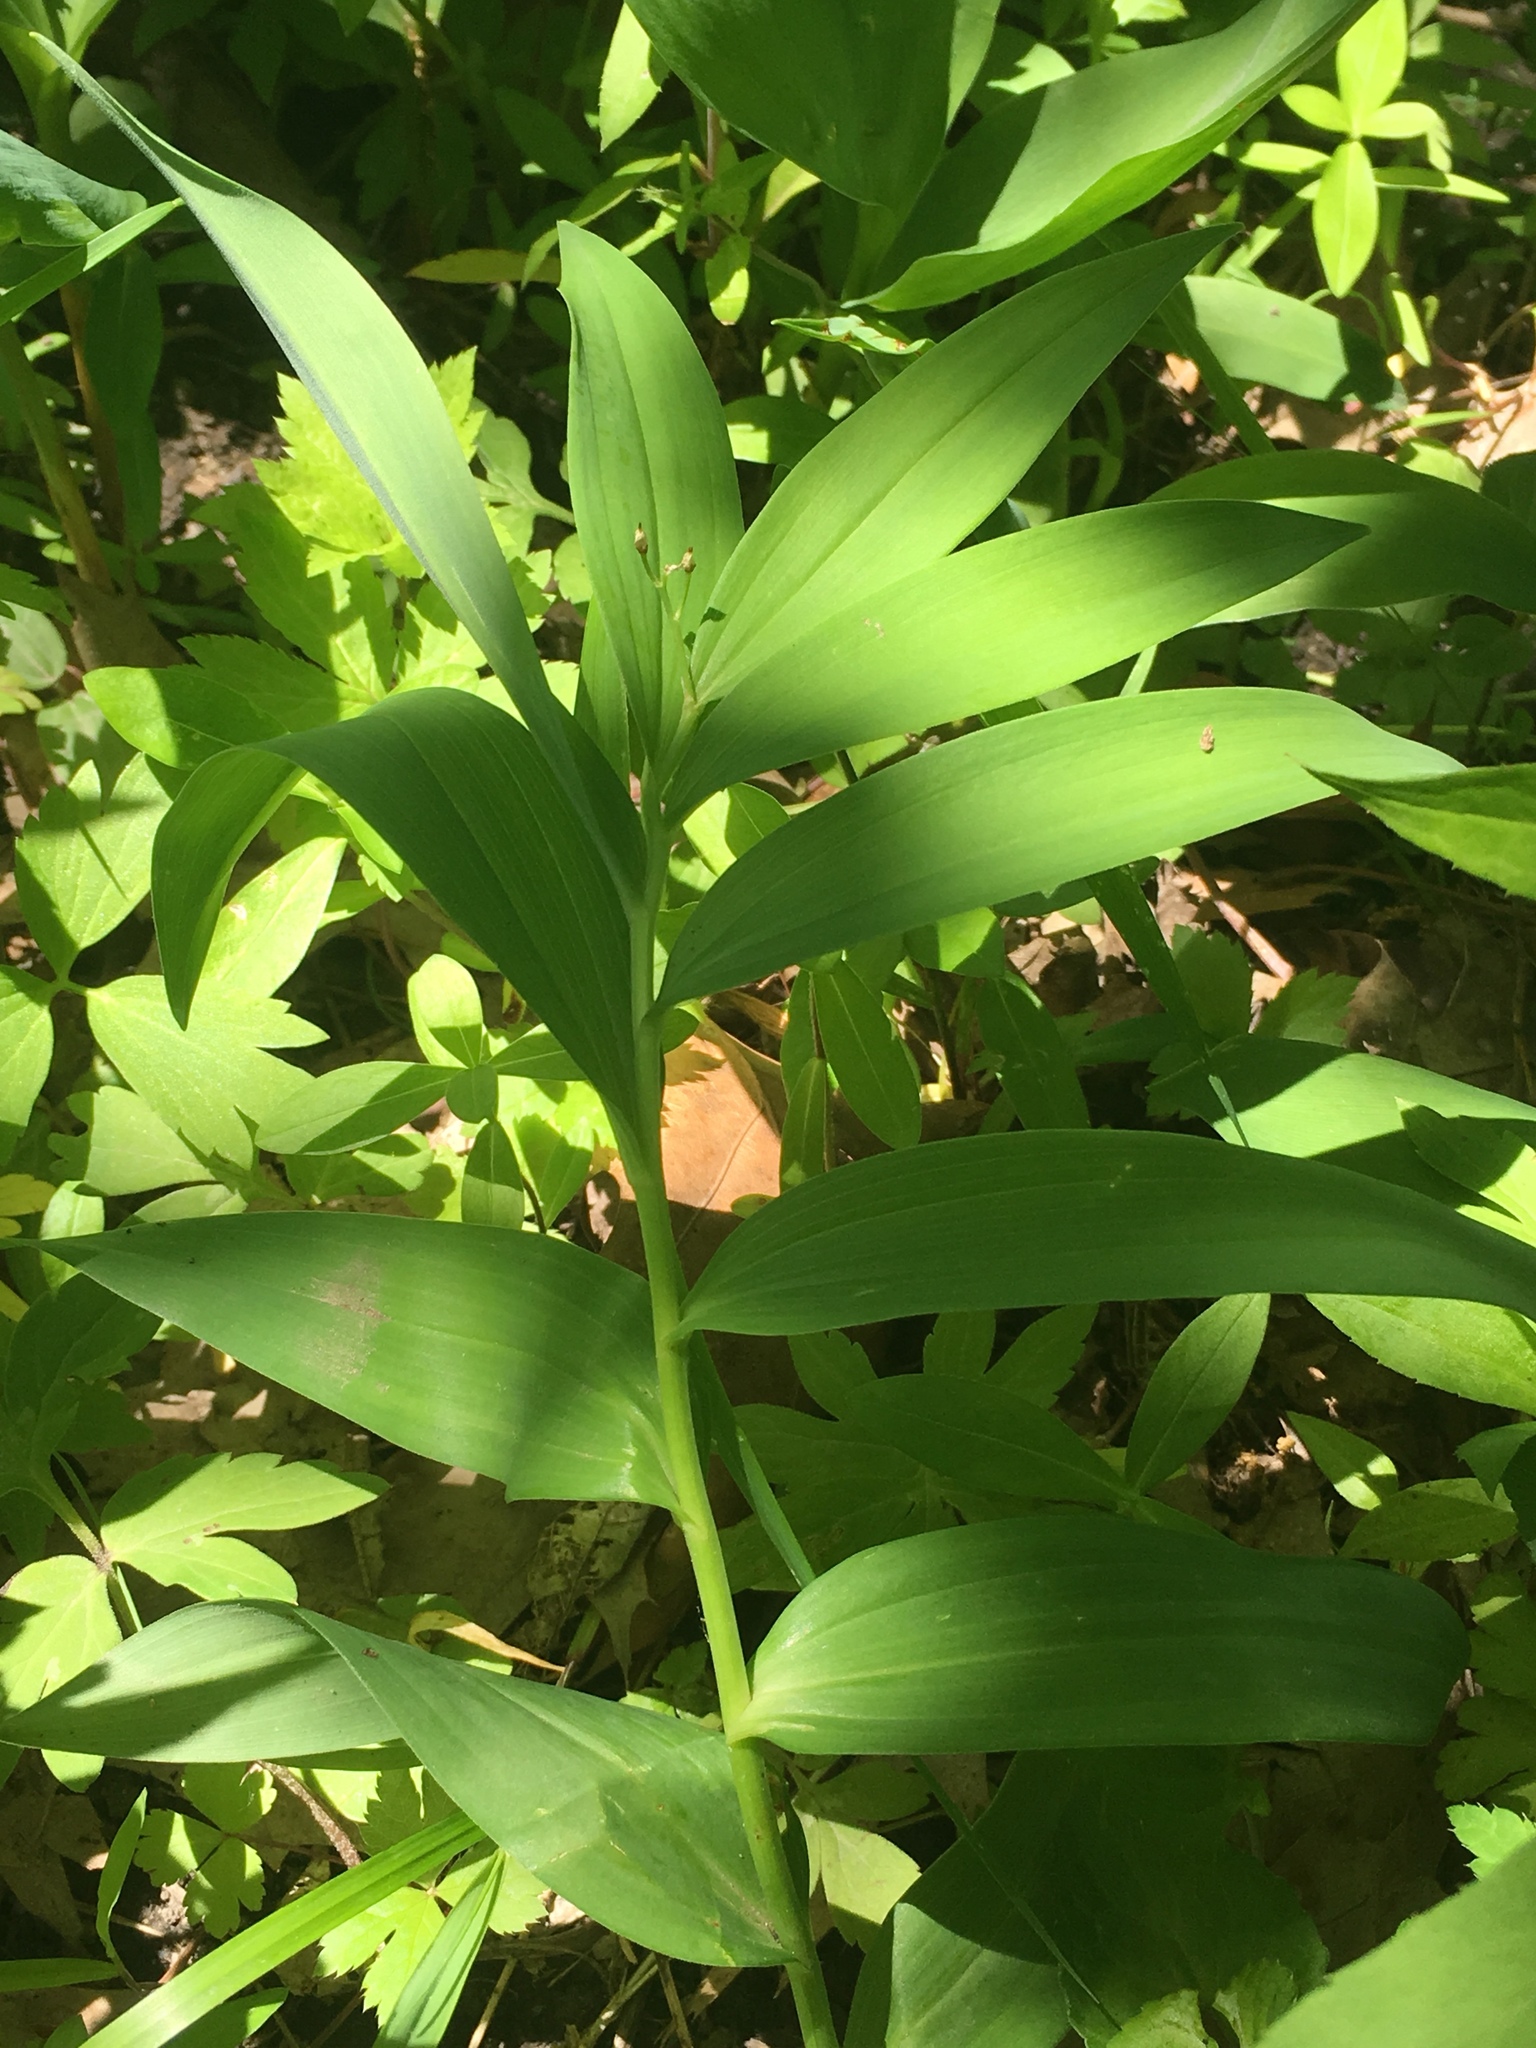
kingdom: Plantae
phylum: Tracheophyta
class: Liliopsida
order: Asparagales
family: Asparagaceae
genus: Maianthemum
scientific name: Maianthemum stellatum
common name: Little false solomon's seal
